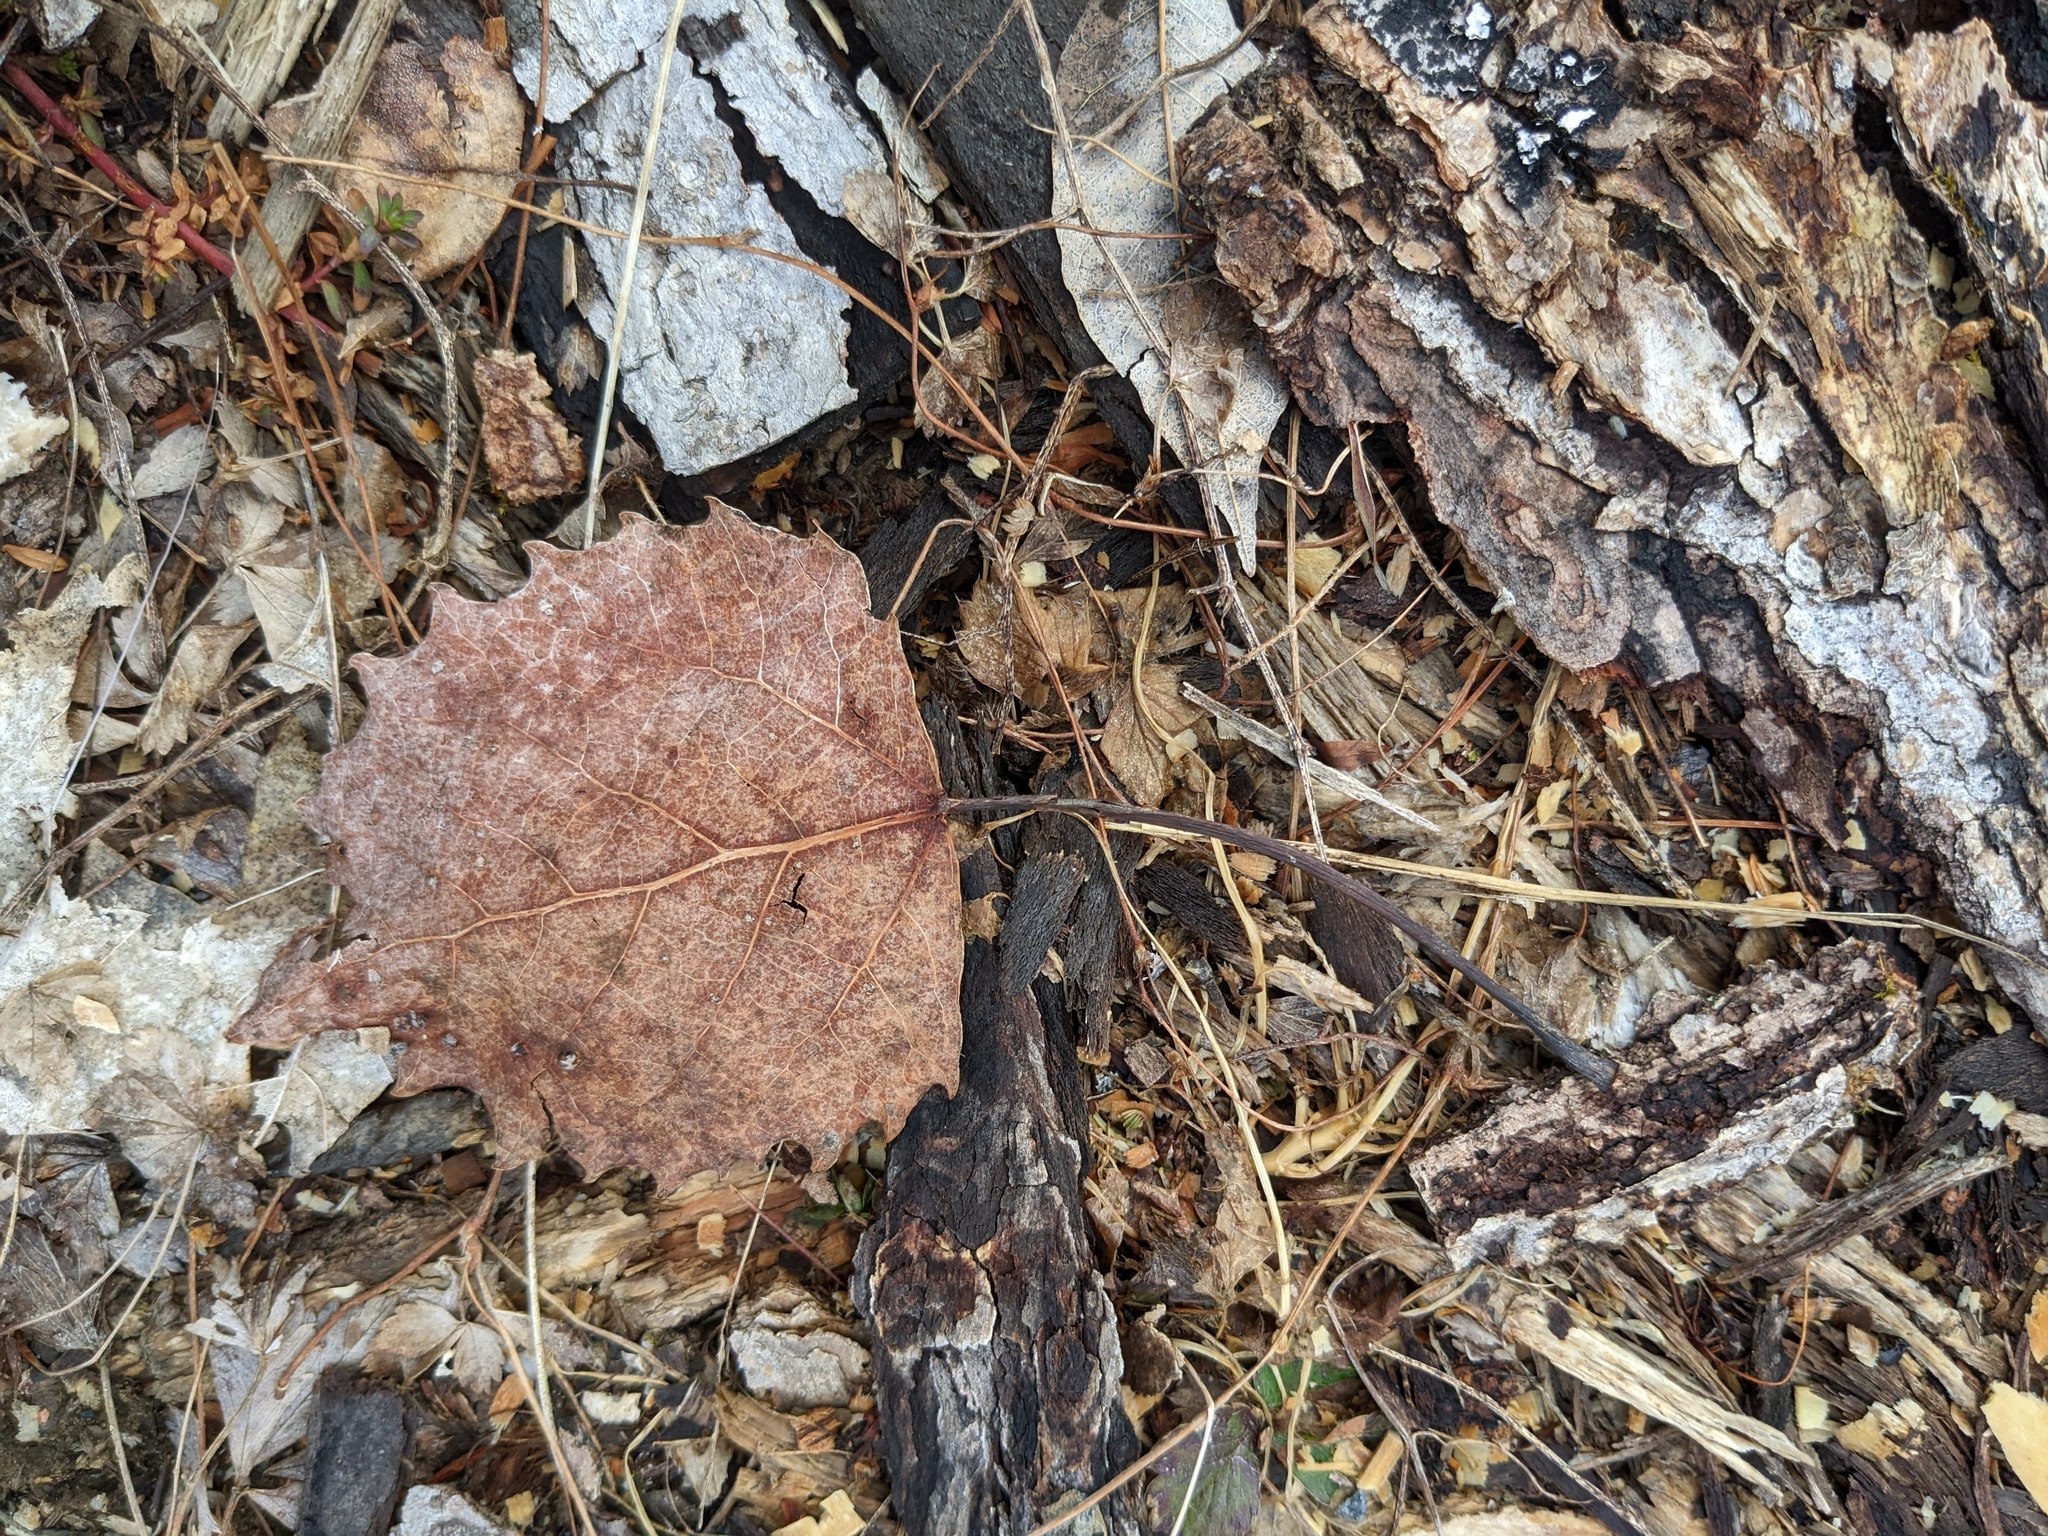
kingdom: Plantae
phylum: Tracheophyta
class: Magnoliopsida
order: Malpighiales
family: Salicaceae
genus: Populus
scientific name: Populus grandidentata
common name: Bigtooth aspen
